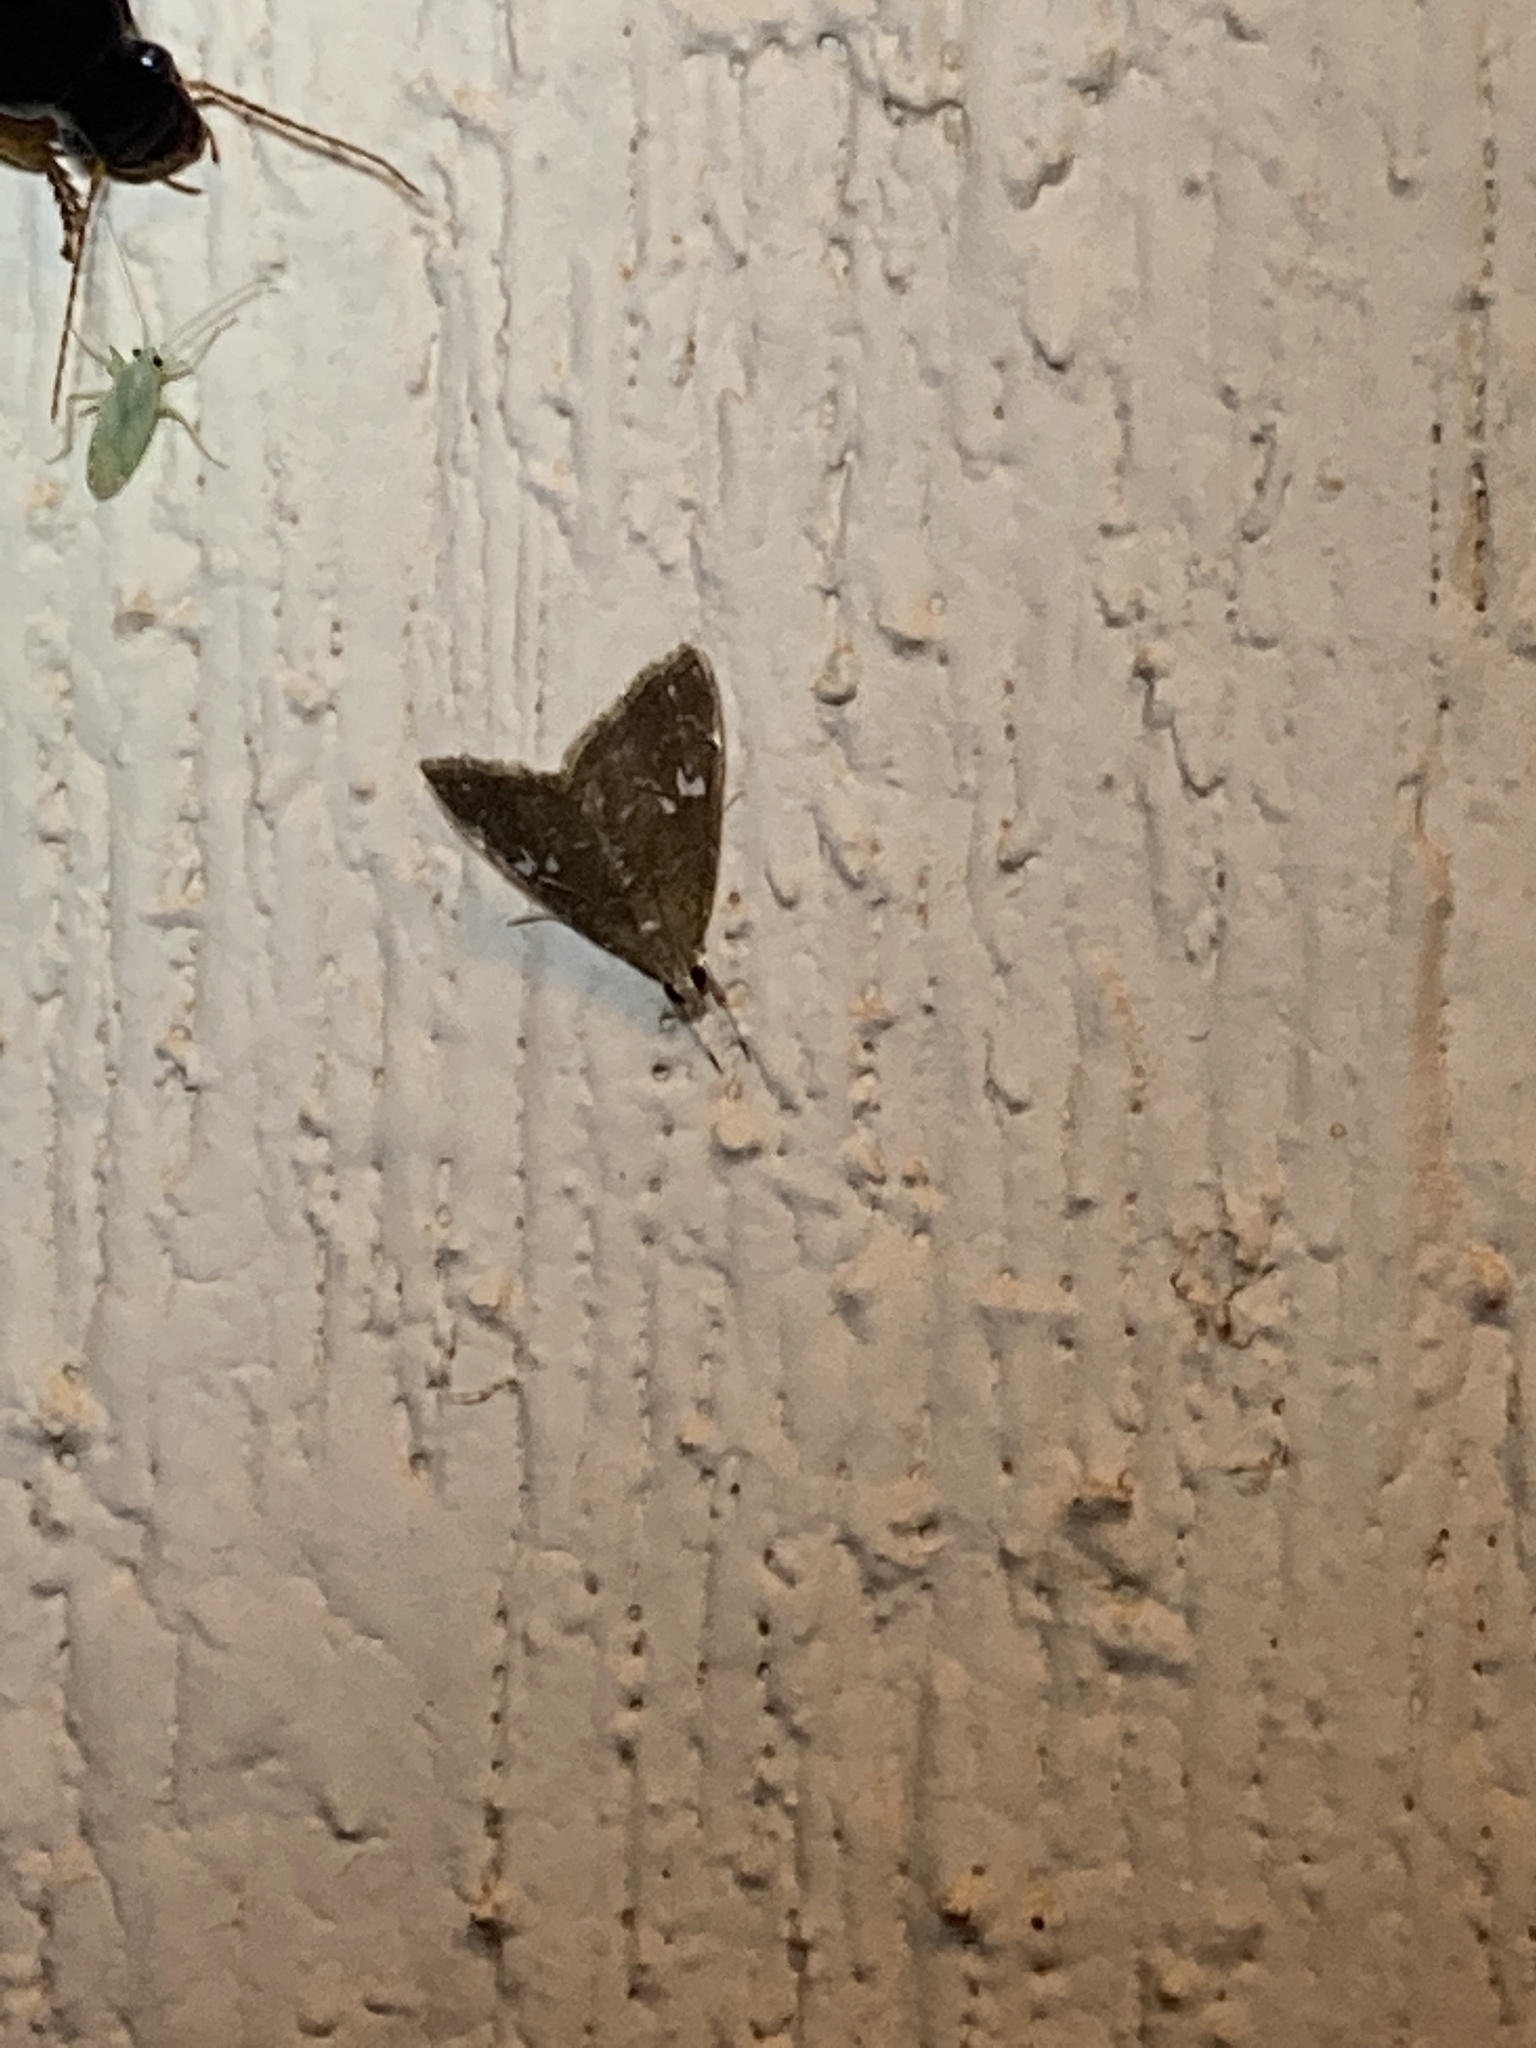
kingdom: Animalia
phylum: Arthropoda
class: Insecta
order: Lepidoptera
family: Crambidae
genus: Nephrogramma
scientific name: Nephrogramma reniculalis
